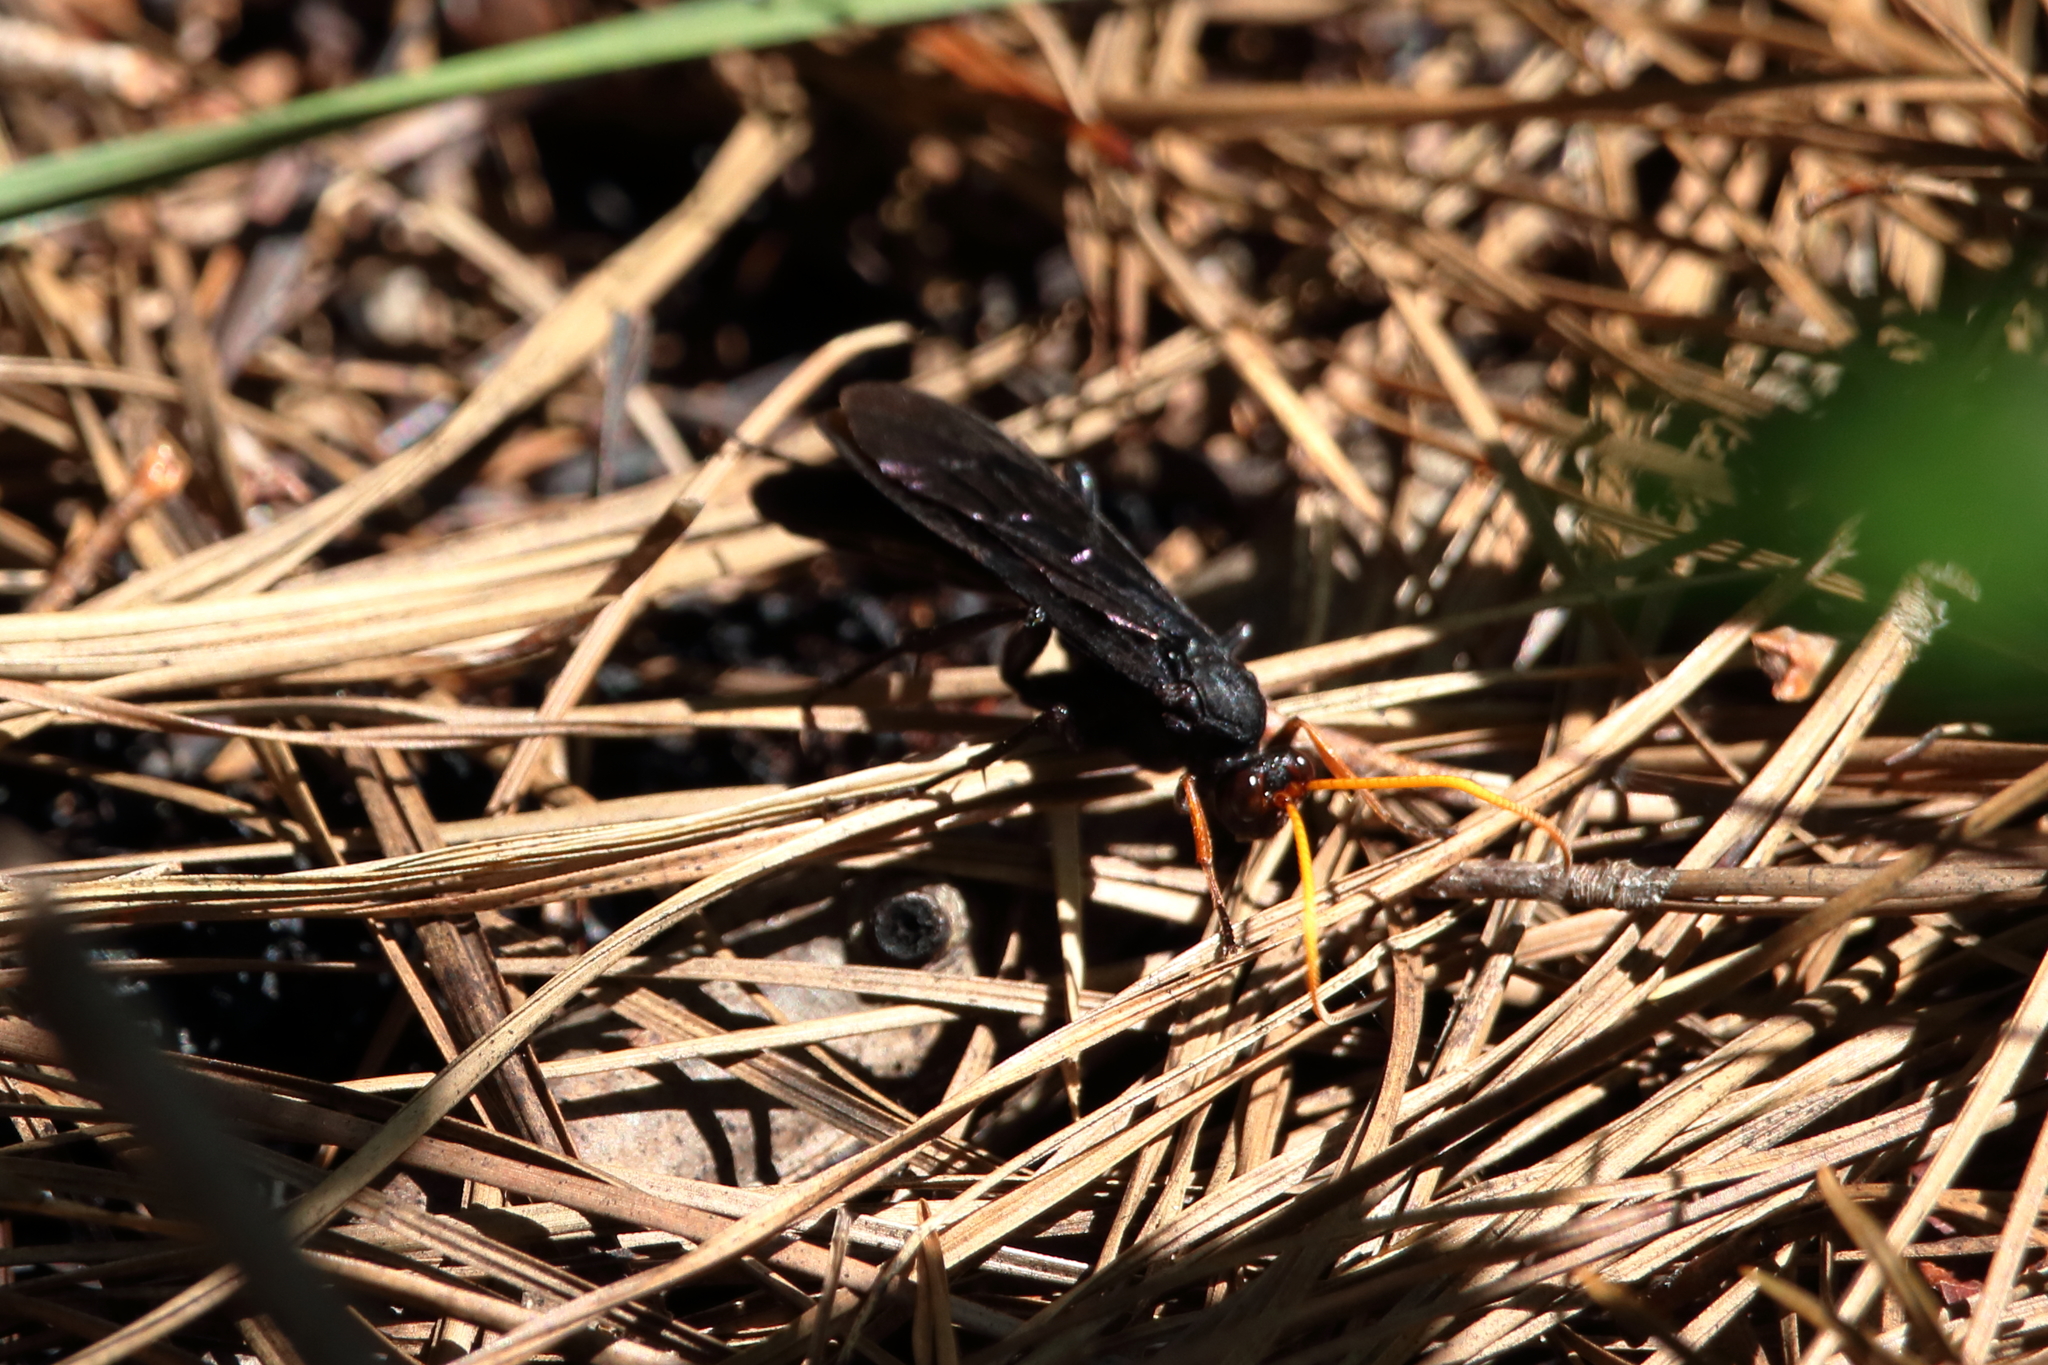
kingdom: Animalia
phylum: Arthropoda
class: Insecta
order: Hymenoptera
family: Ichneumonidae
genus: Gnamptopelta
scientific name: Gnamptopelta obsidianator
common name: Bent-shielded besieger wasp
